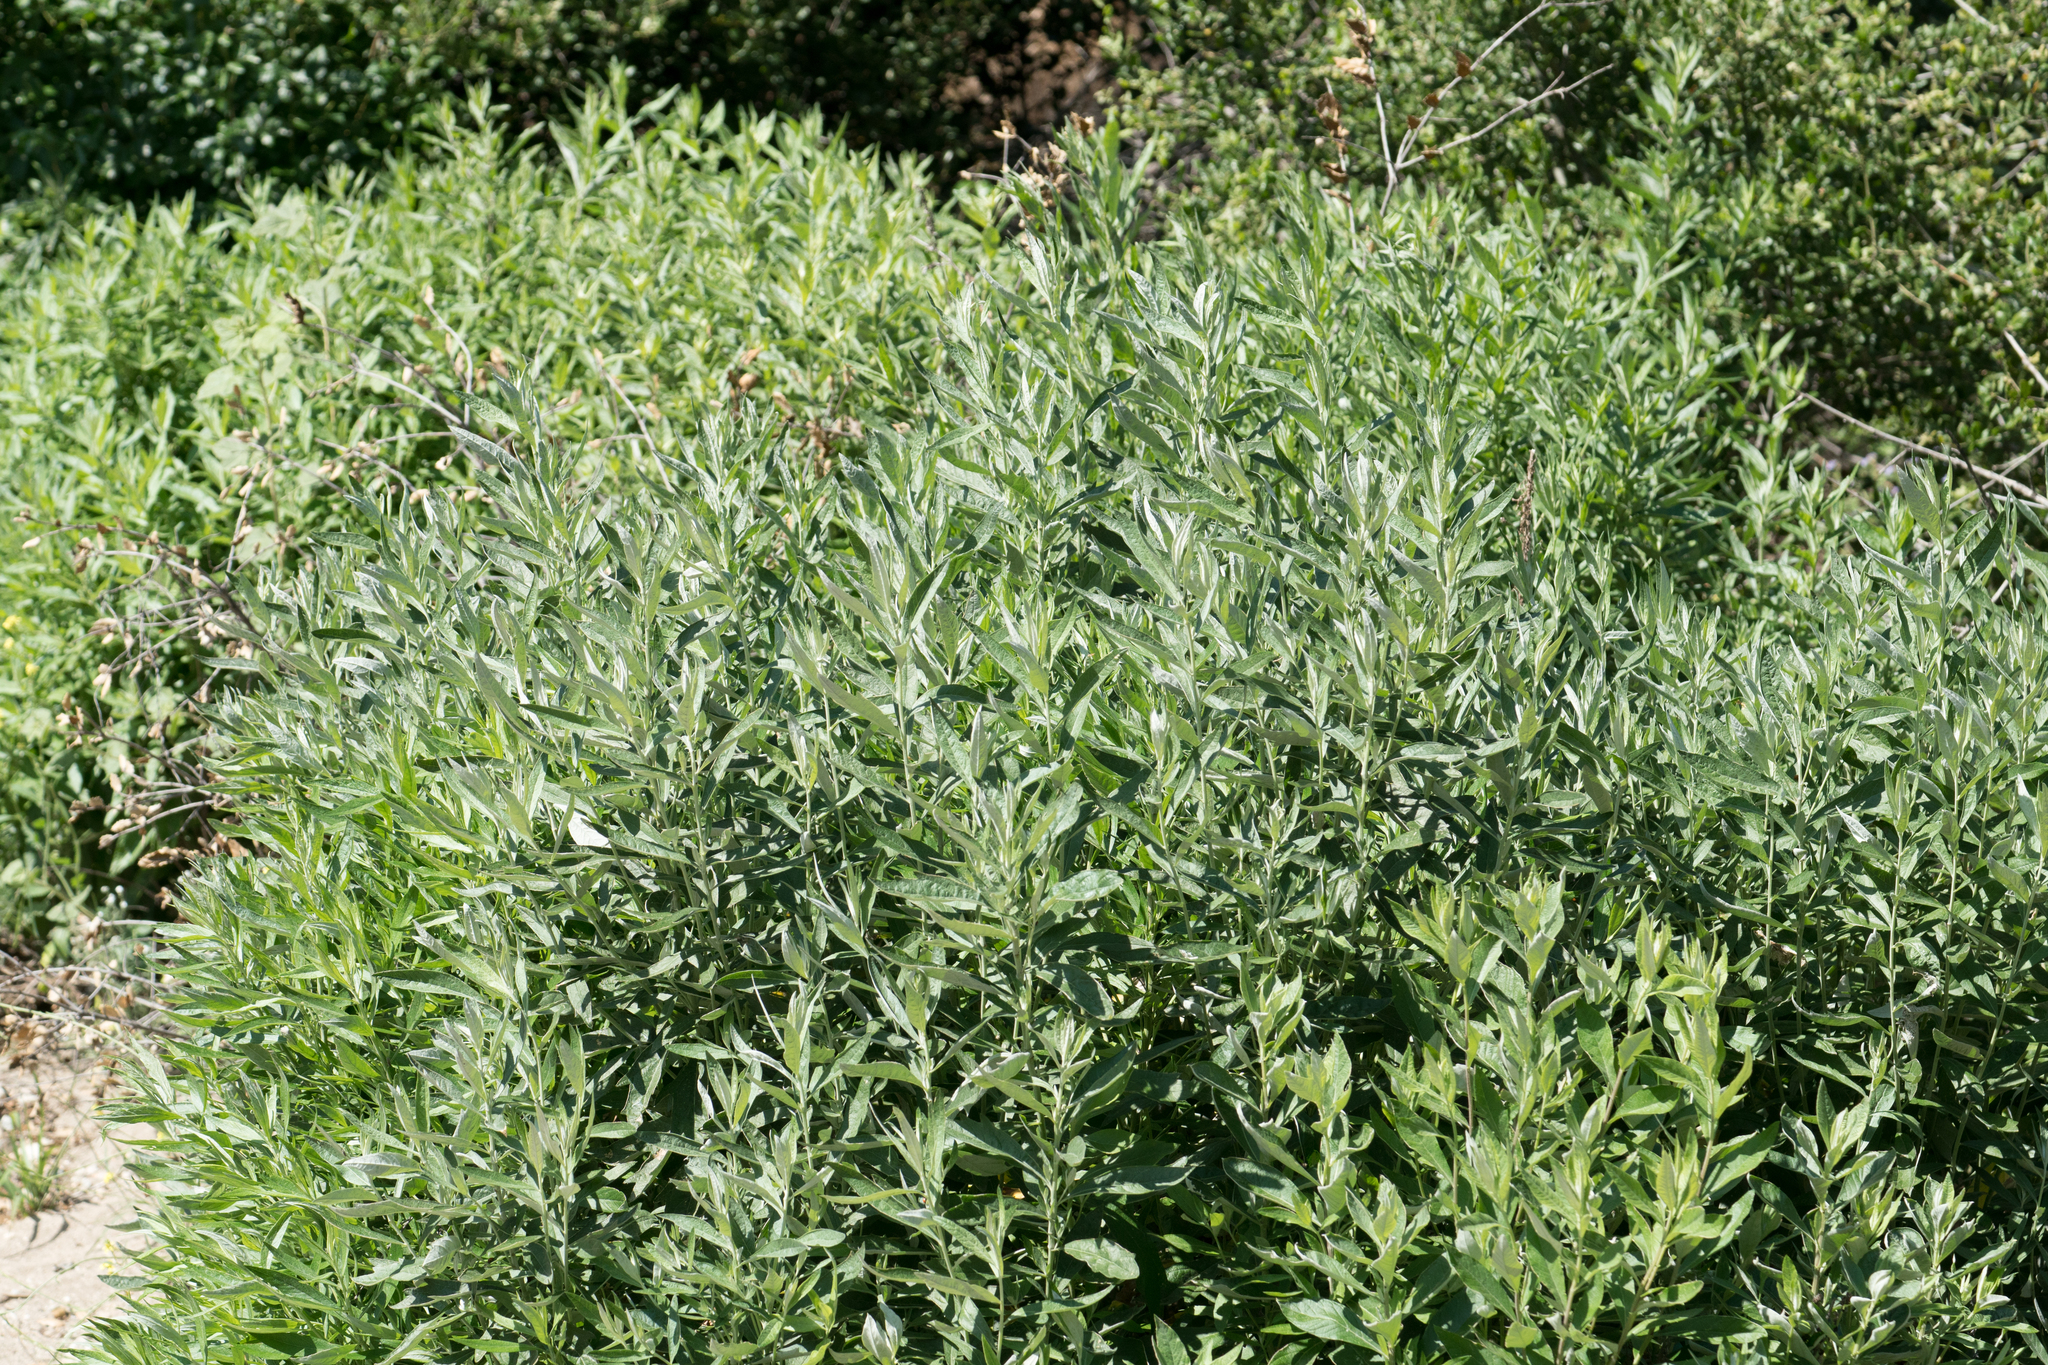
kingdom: Plantae
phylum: Tracheophyta
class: Magnoliopsida
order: Asterales
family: Asteraceae
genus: Artemisia
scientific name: Artemisia douglasiana
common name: Northwest mugwort
